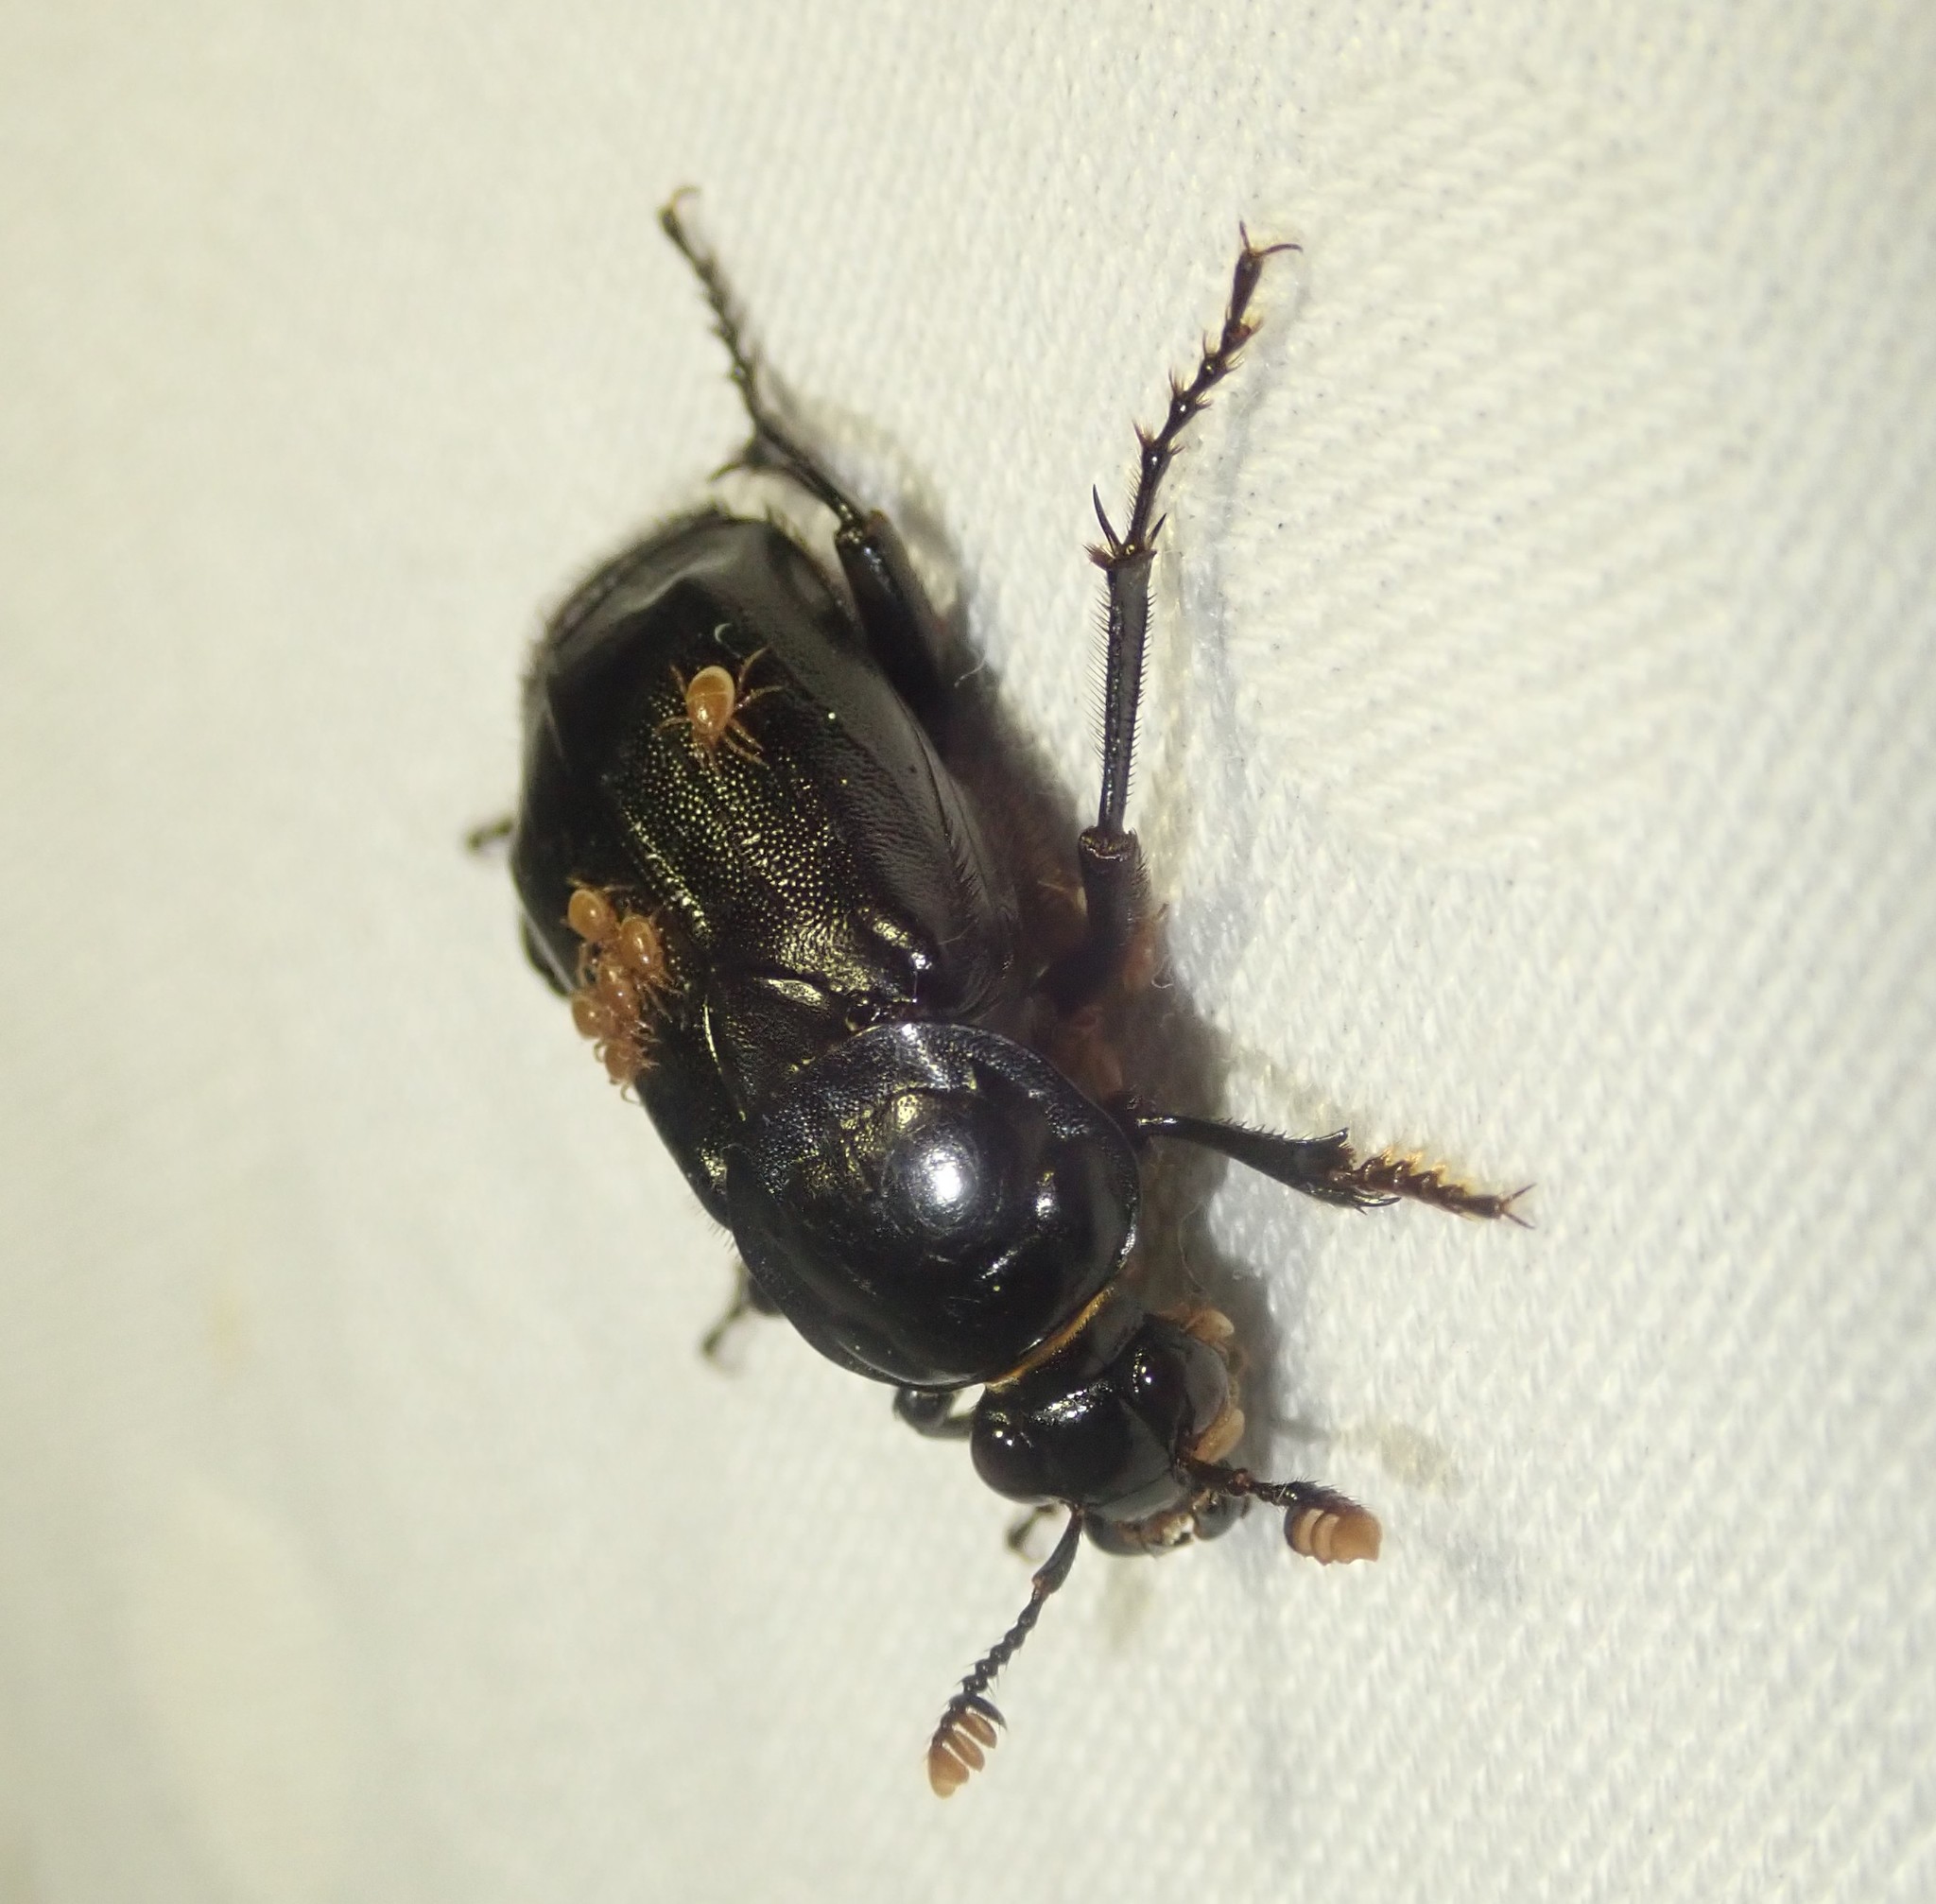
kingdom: Animalia
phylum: Arthropoda
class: Insecta
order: Coleoptera
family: Staphylinidae
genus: Nicrophorus
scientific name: Nicrophorus humator
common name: Black sexton beetle
